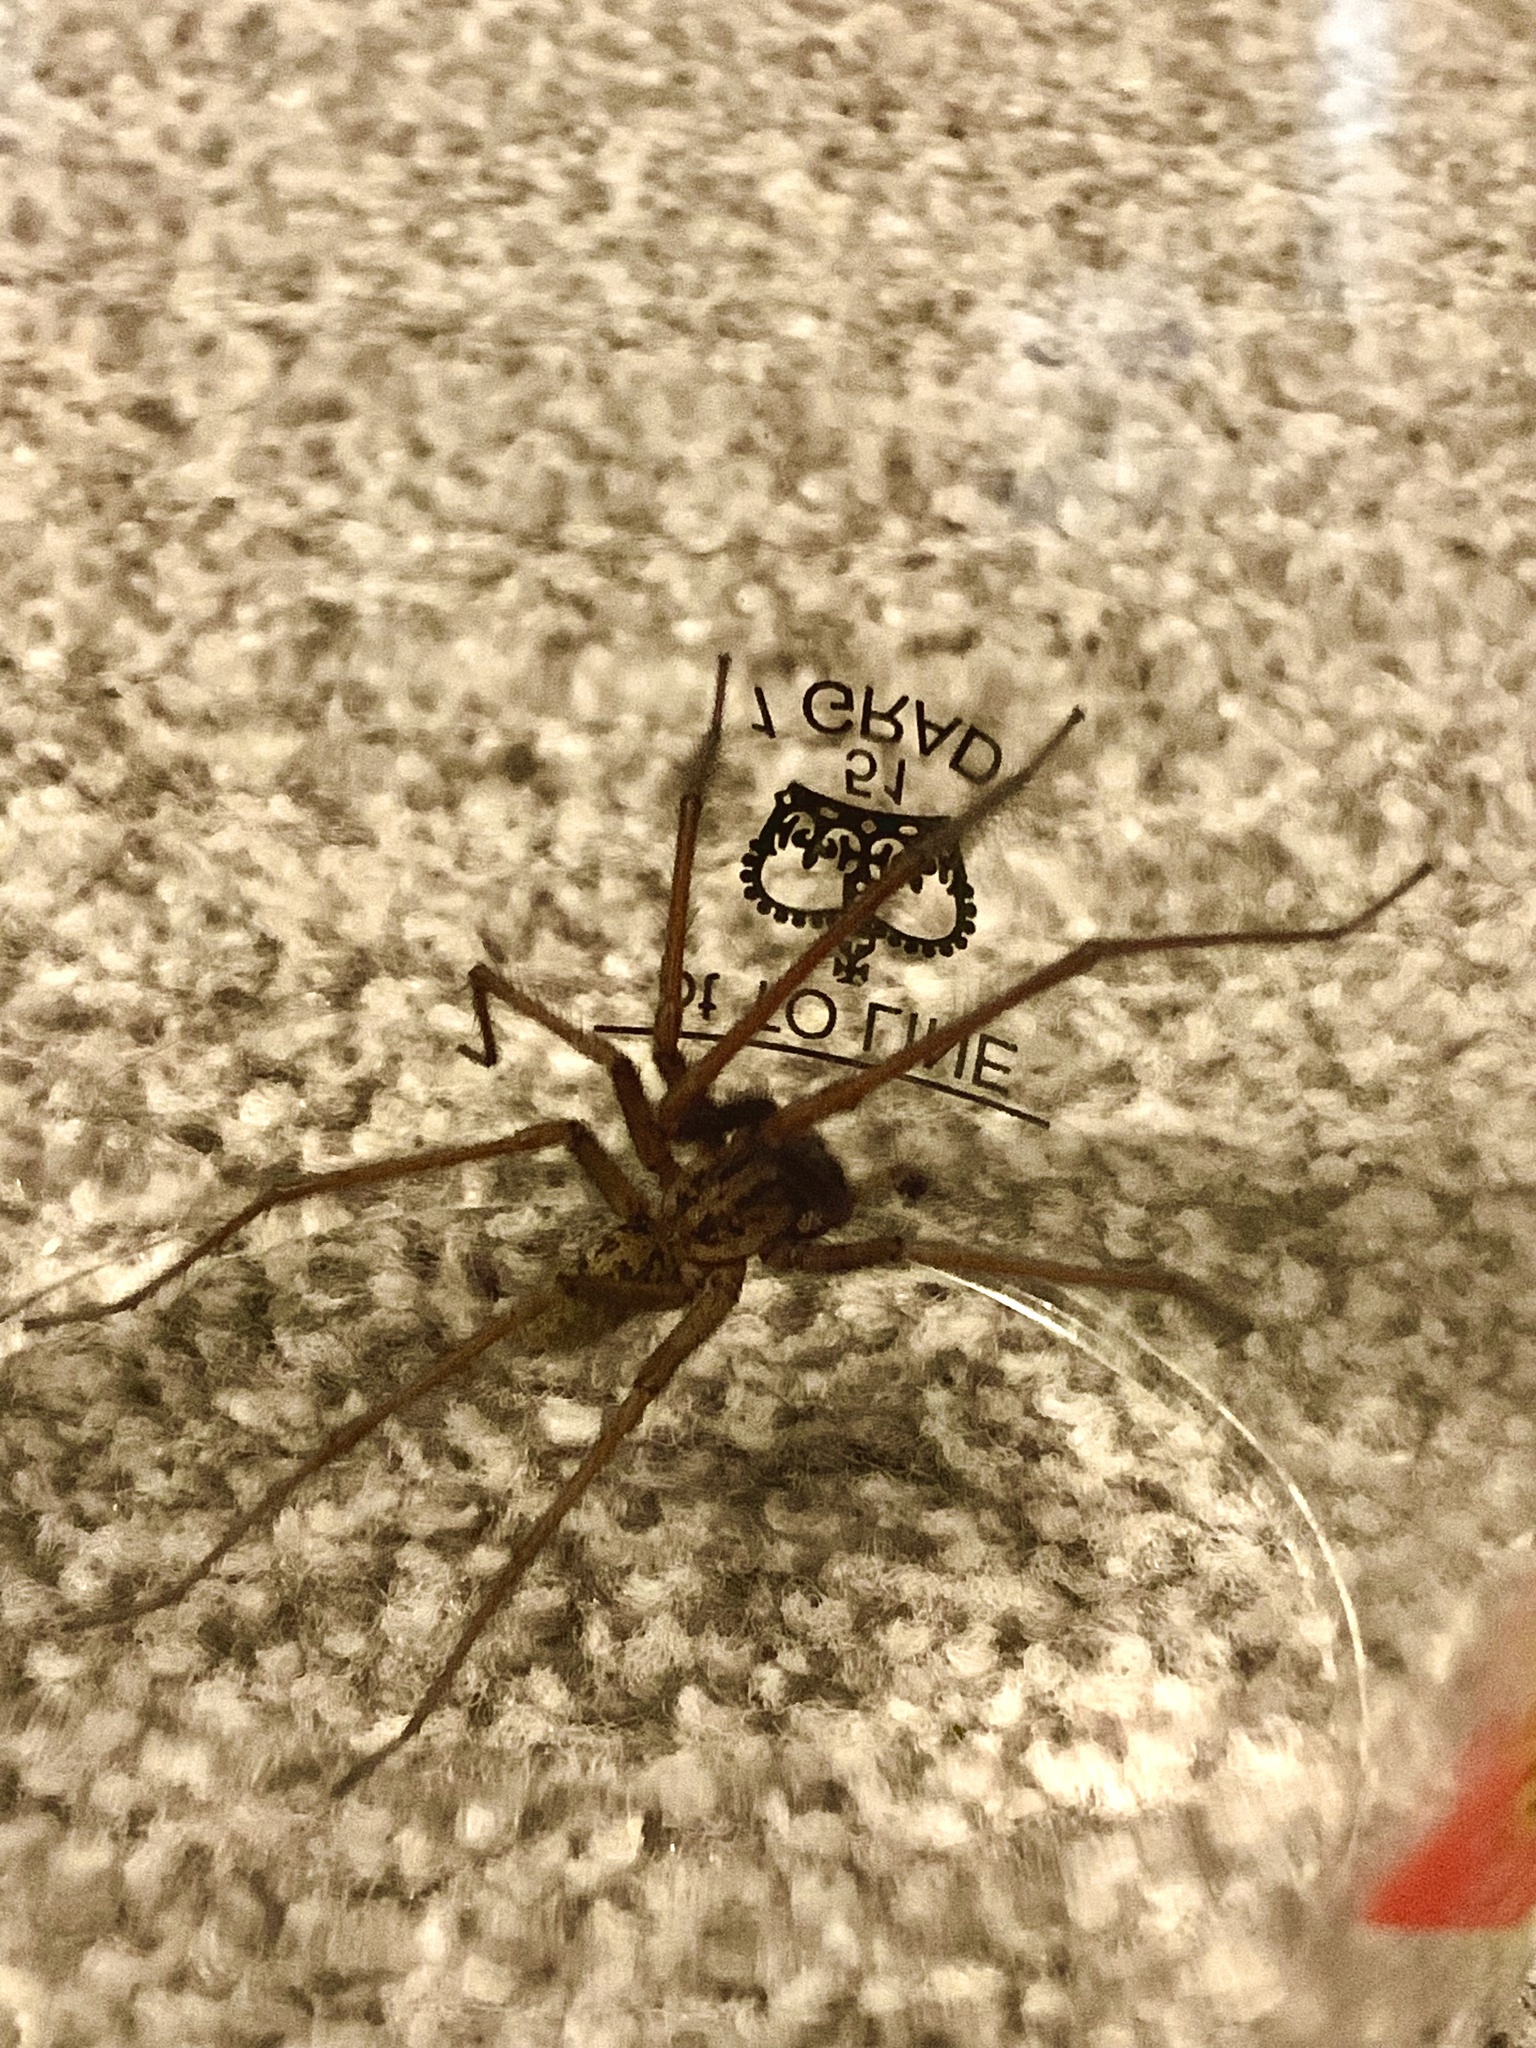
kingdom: Animalia
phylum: Arthropoda
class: Arachnida
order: Araneae
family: Agelenidae
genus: Eratigena
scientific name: Eratigena duellica
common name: Giant house spider
